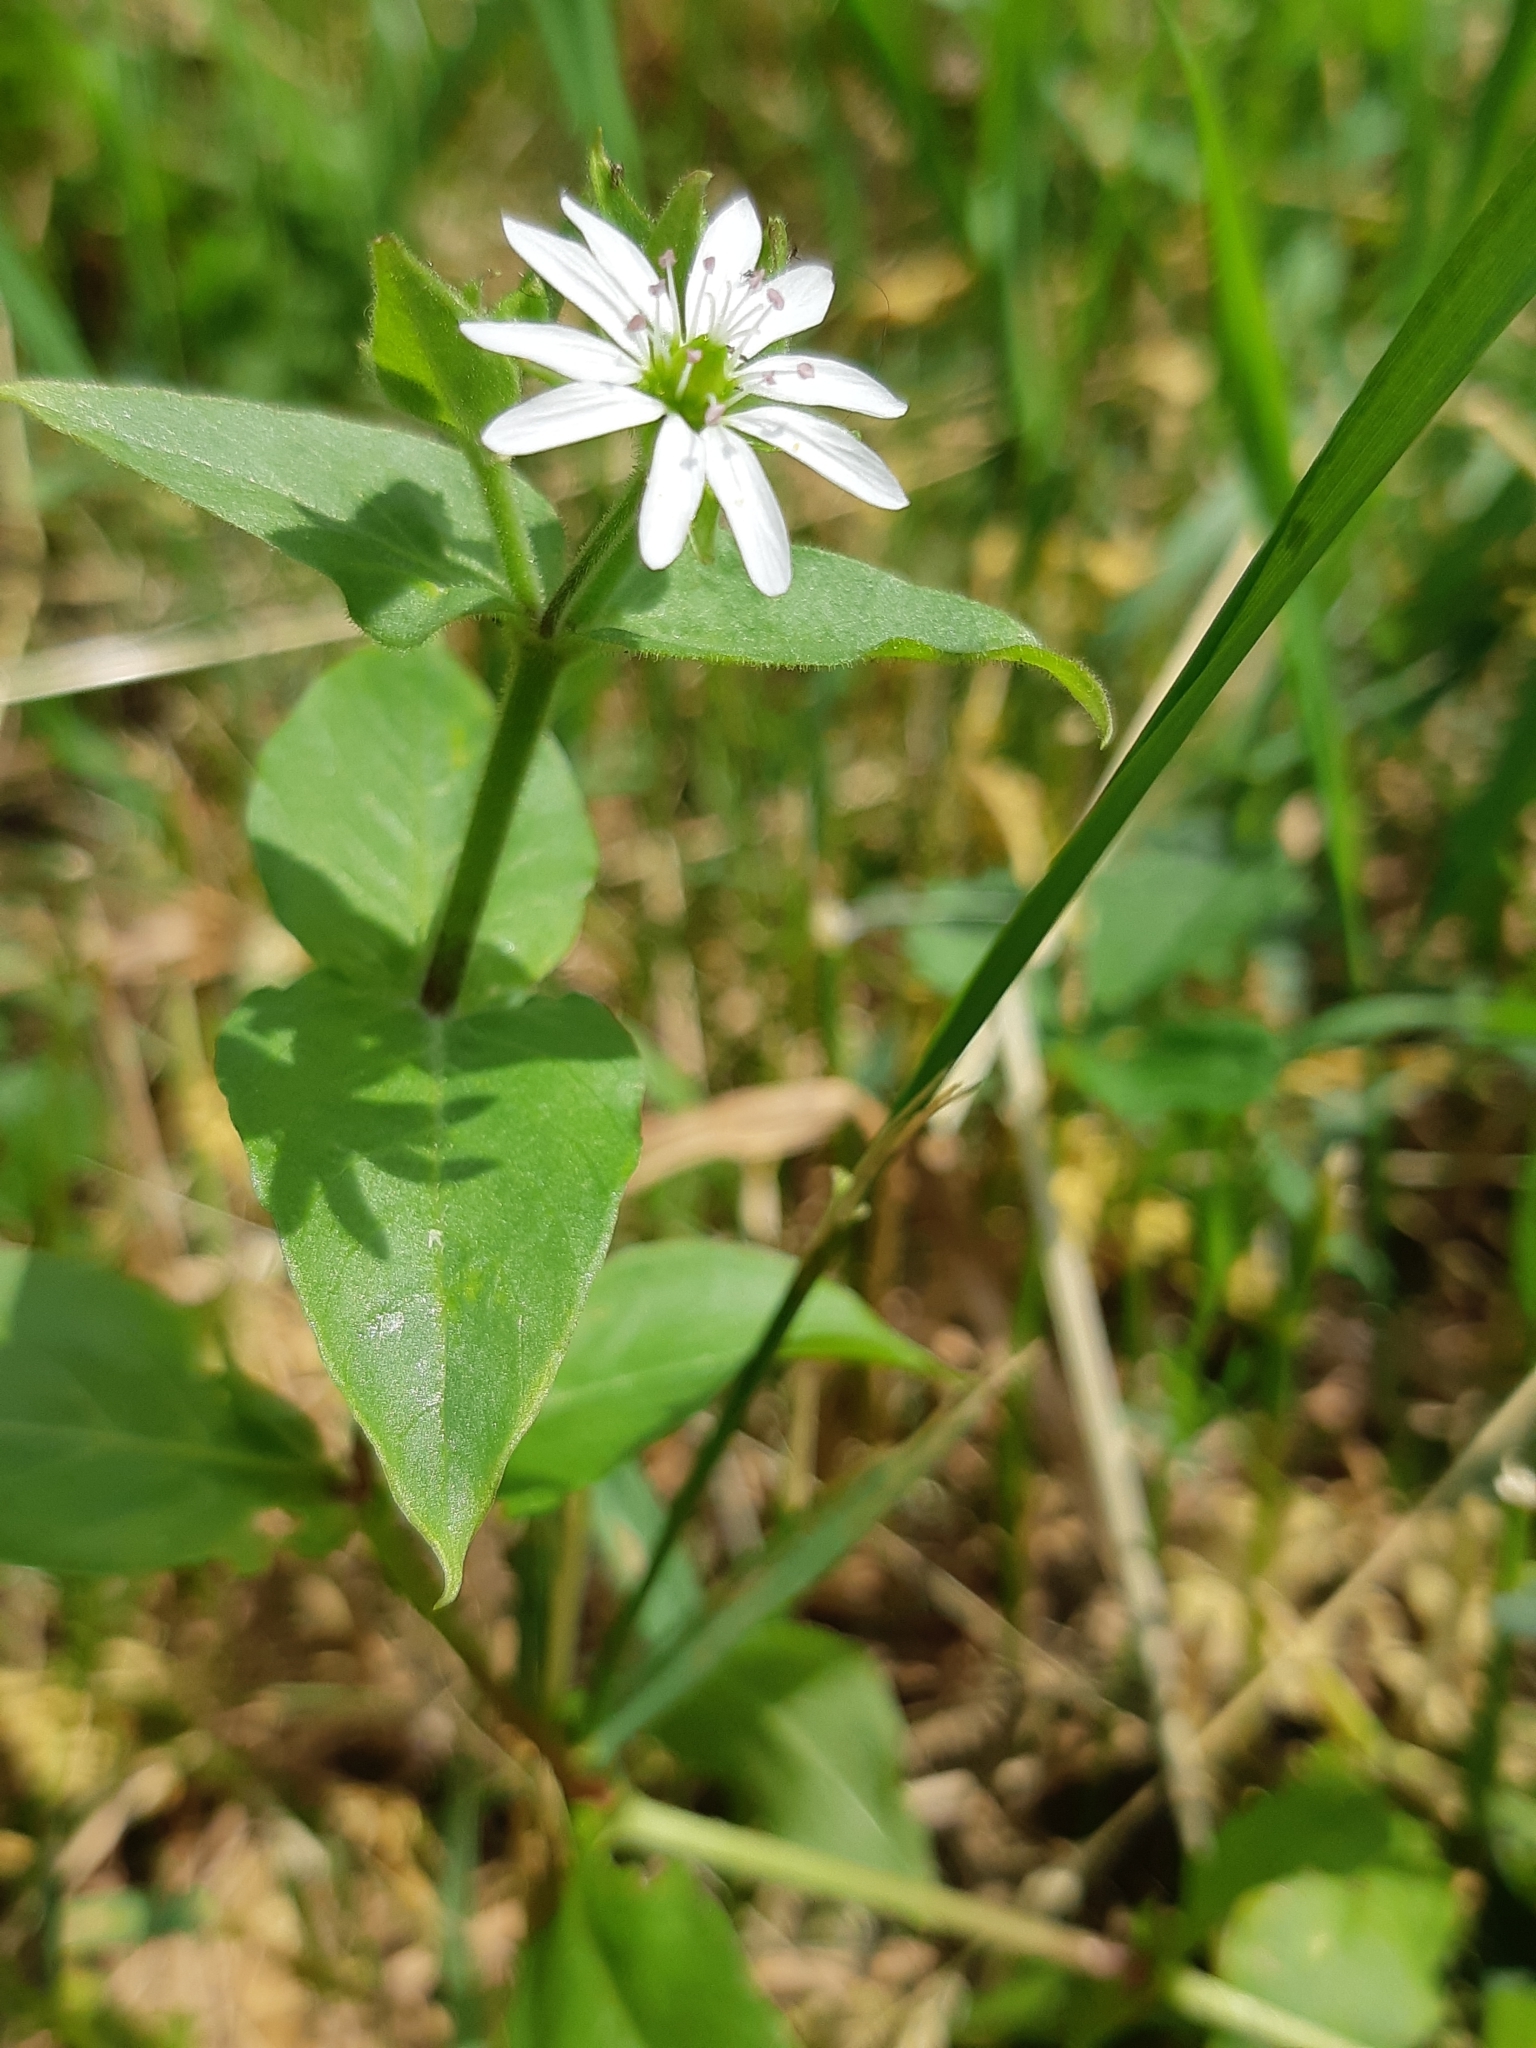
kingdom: Plantae
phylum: Tracheophyta
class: Magnoliopsida
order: Caryophyllales
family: Caryophyllaceae
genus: Stellaria
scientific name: Stellaria aquatica
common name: Water chickweed
